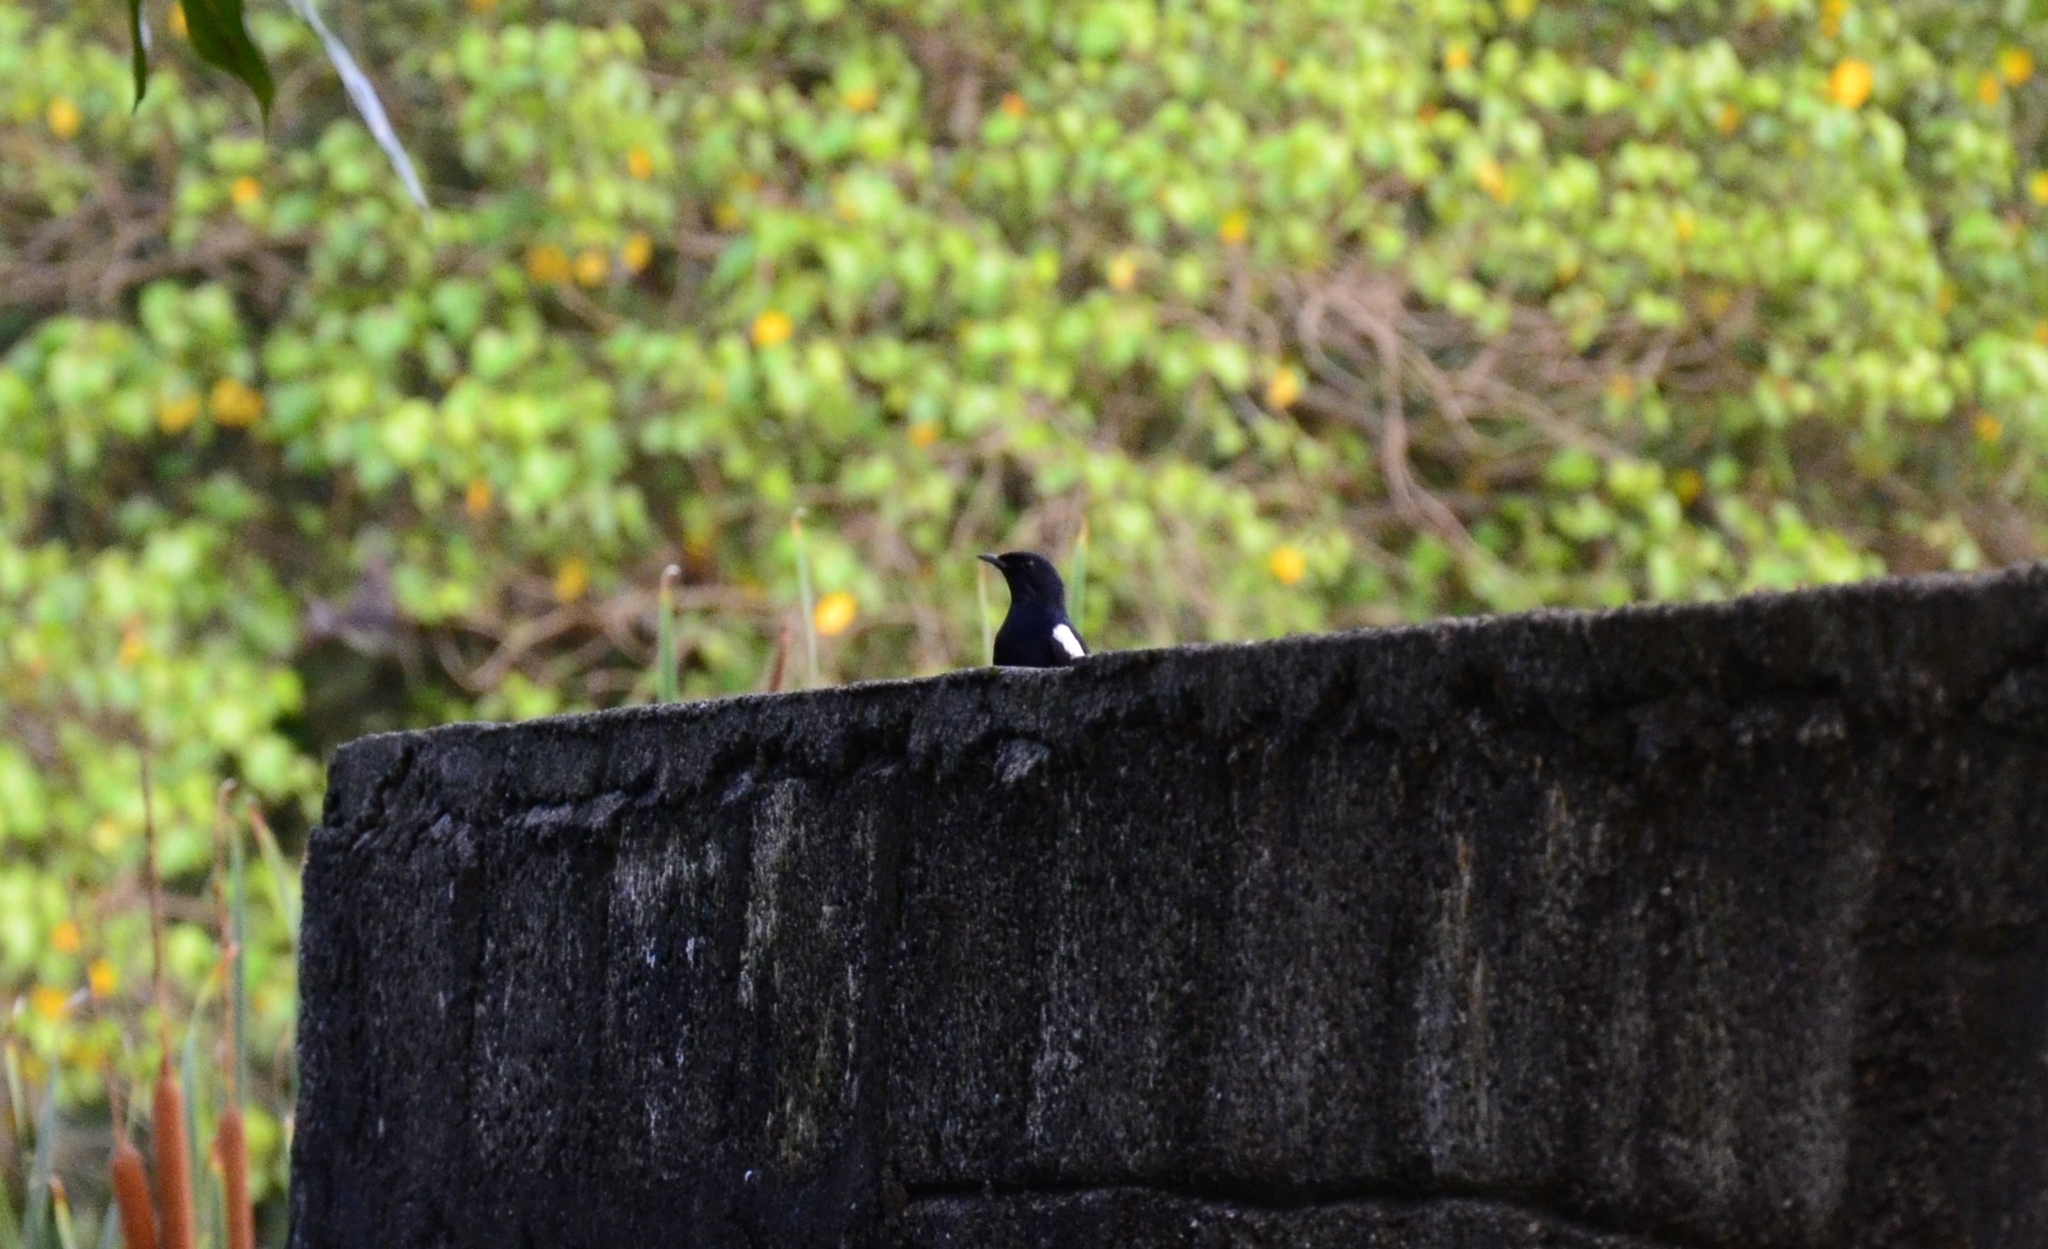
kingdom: Animalia
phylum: Chordata
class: Aves
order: Passeriformes
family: Muscicapidae
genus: Copsychus
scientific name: Copsychus saularis
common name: Oriental magpie-robin
